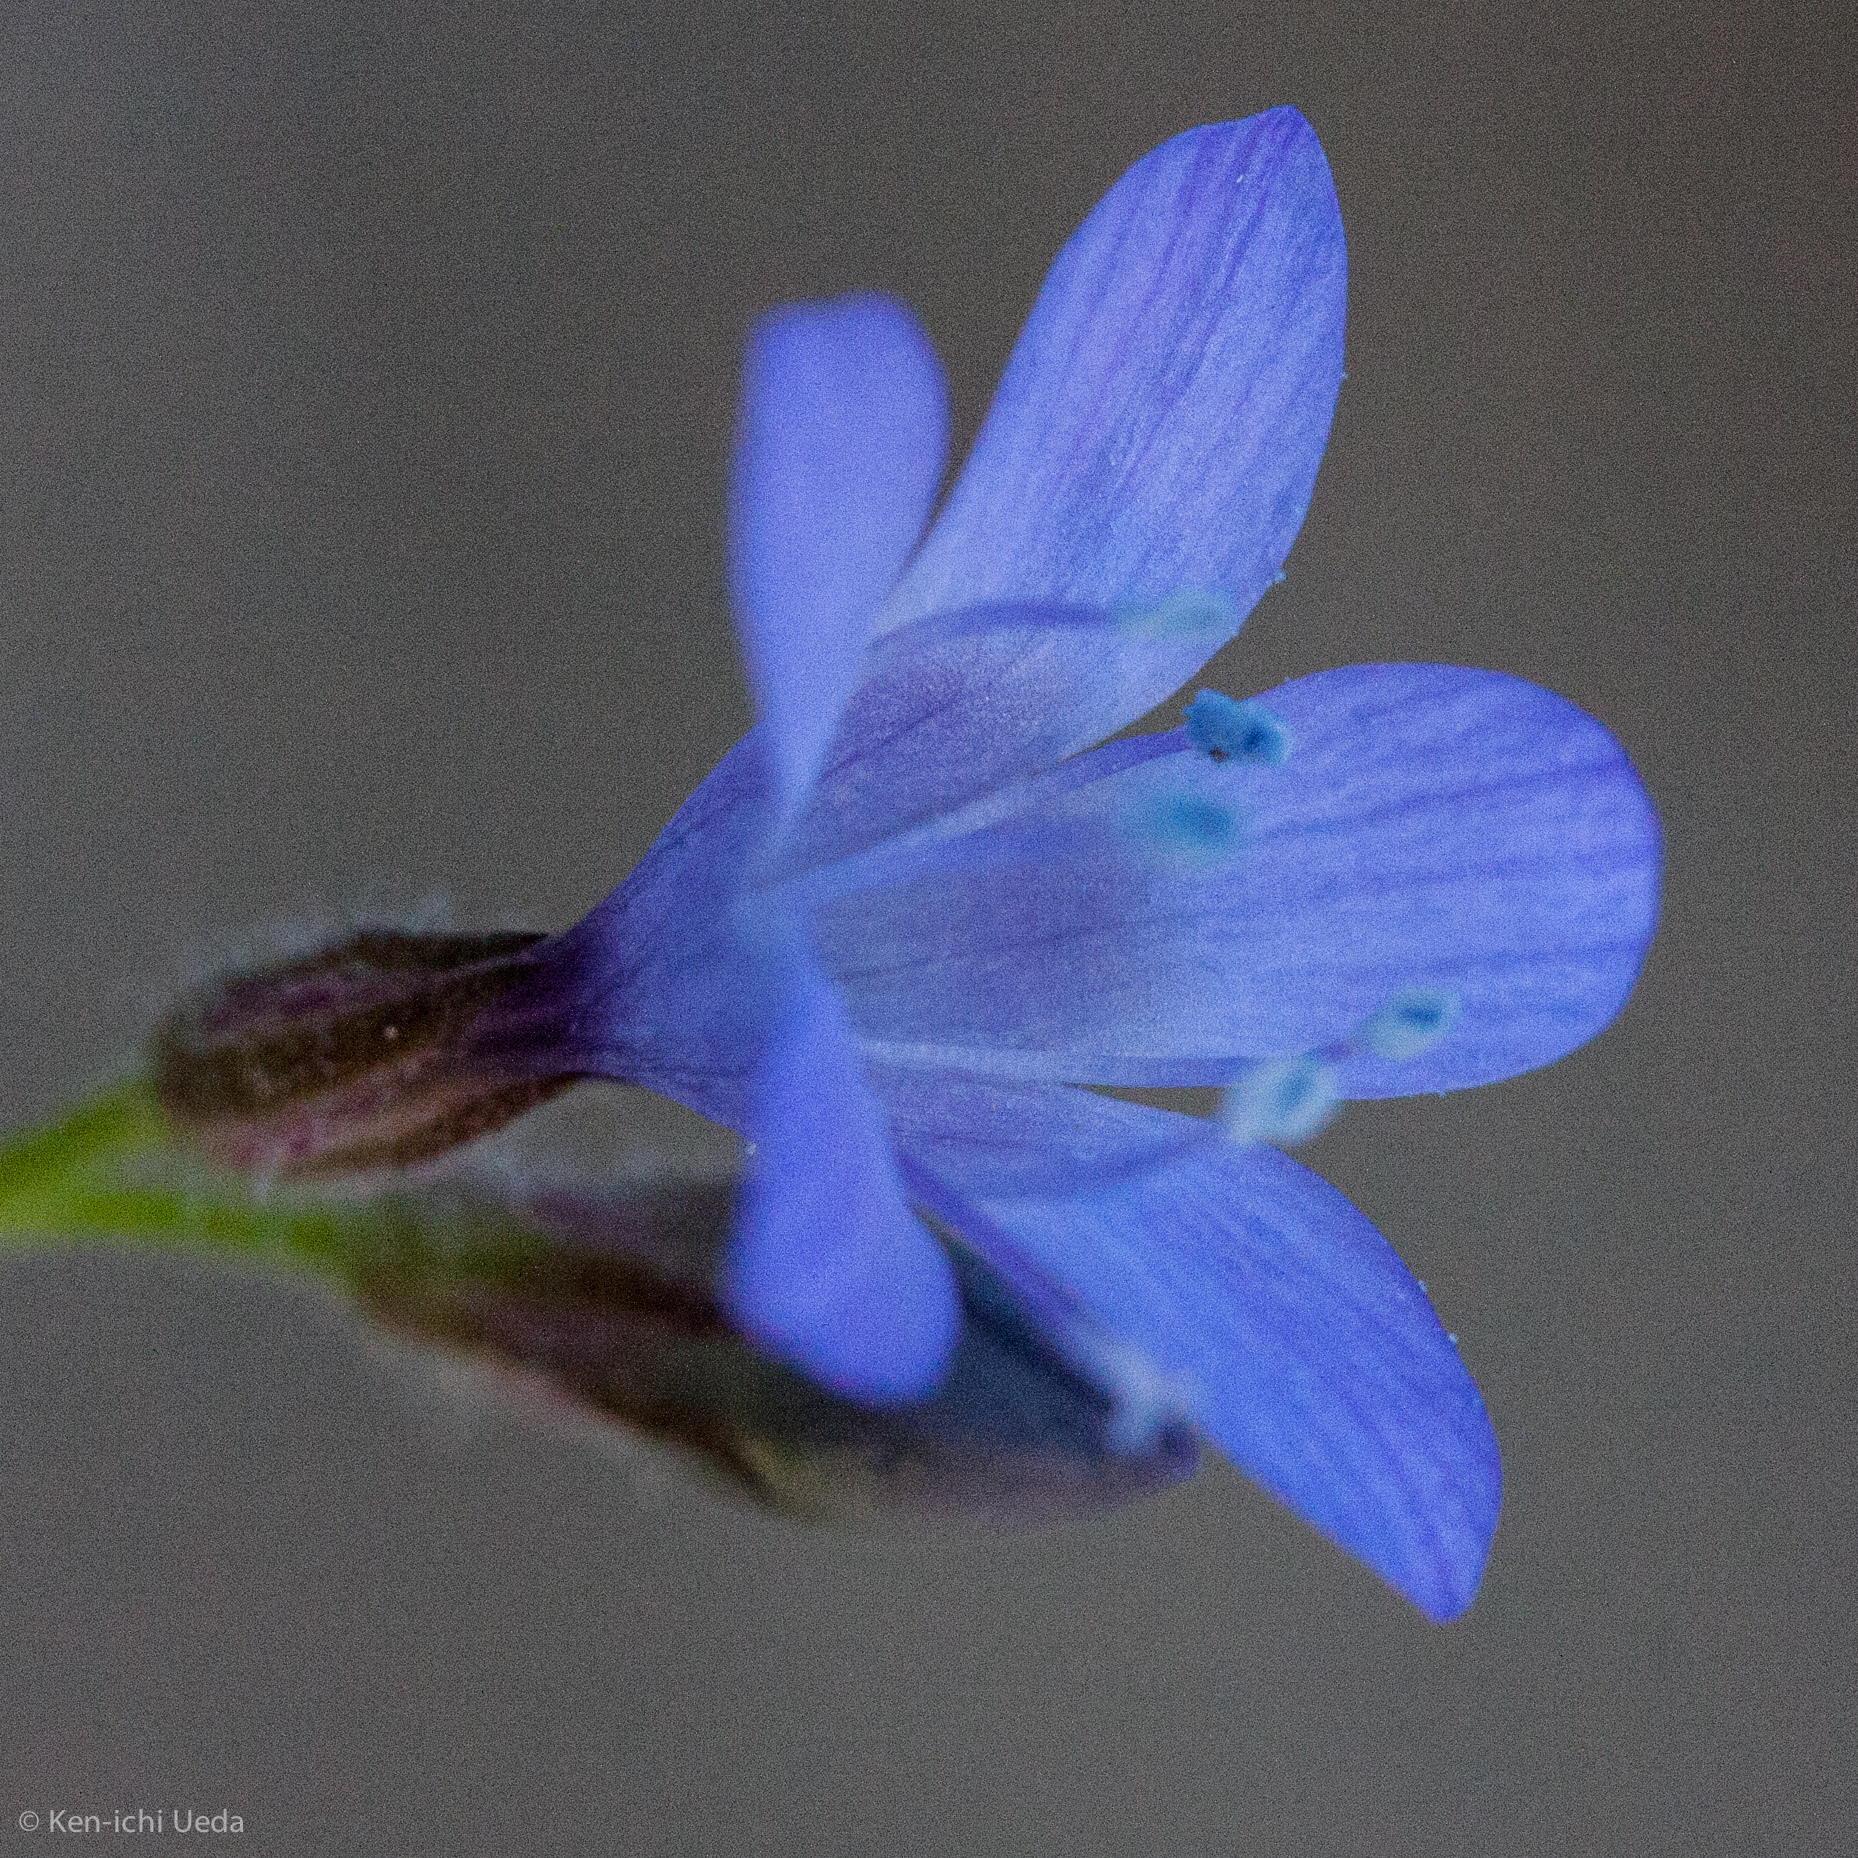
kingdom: Plantae
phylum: Tracheophyta
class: Magnoliopsida
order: Ericales
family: Polemoniaceae
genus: Gilia
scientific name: Gilia achilleifolia
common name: California gily-flower
